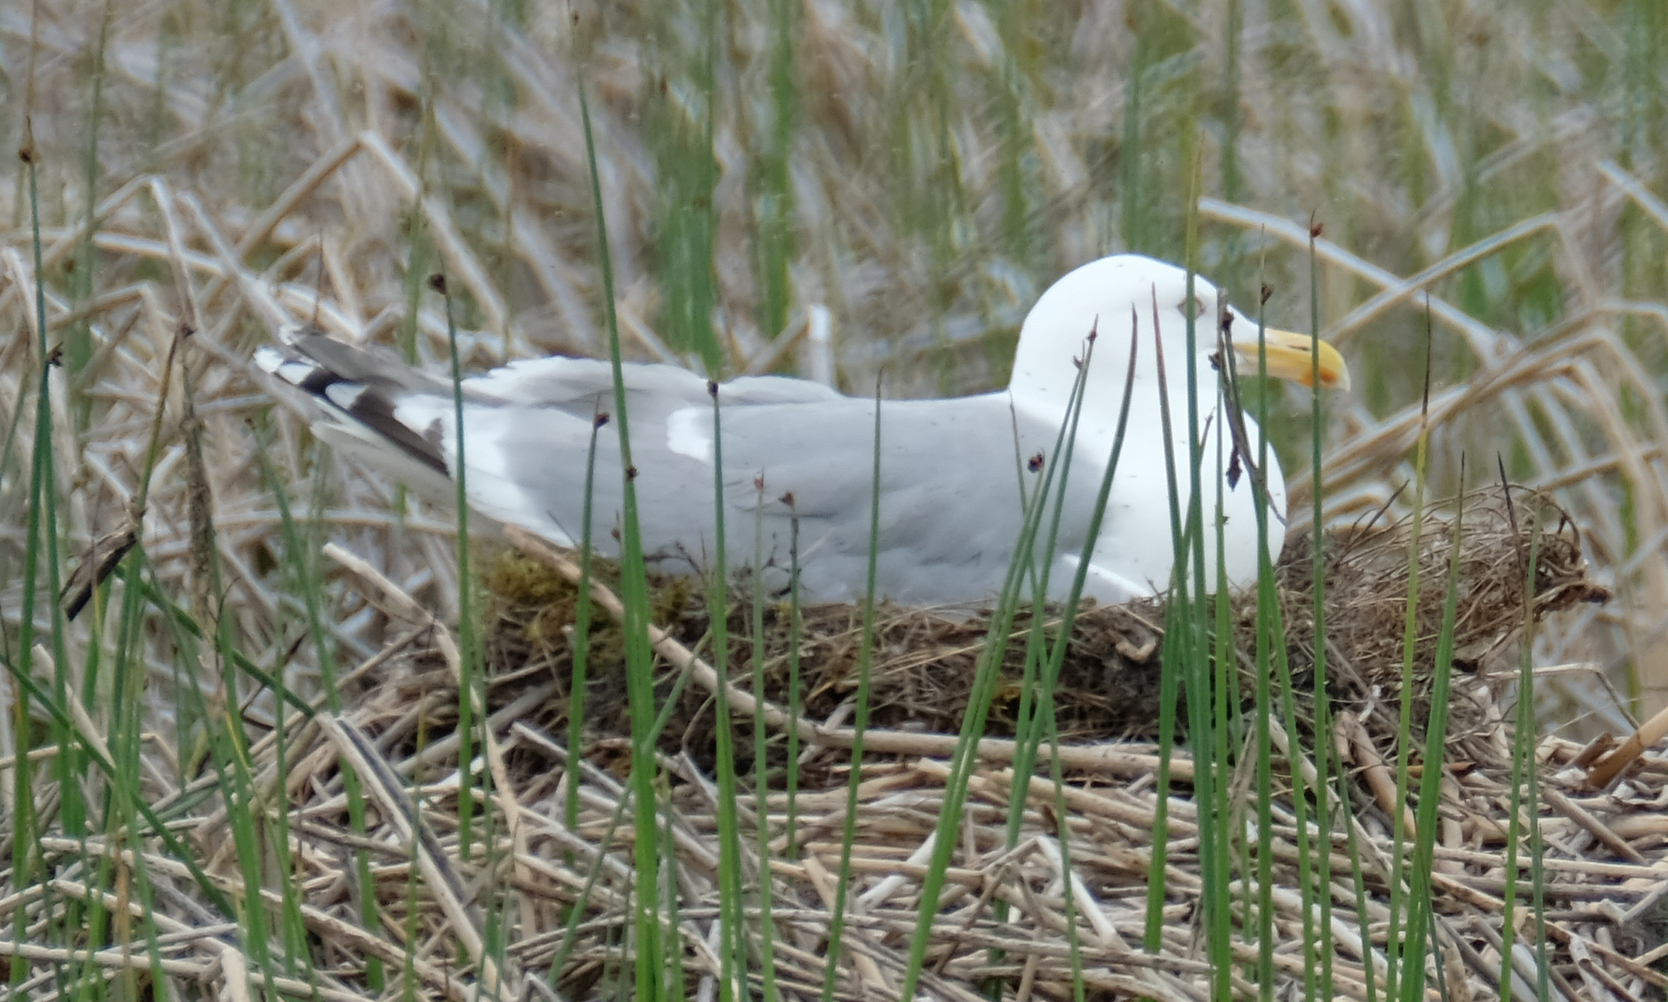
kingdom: Animalia
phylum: Chordata
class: Aves
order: Charadriiformes
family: Laridae
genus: Larus
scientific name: Larus
